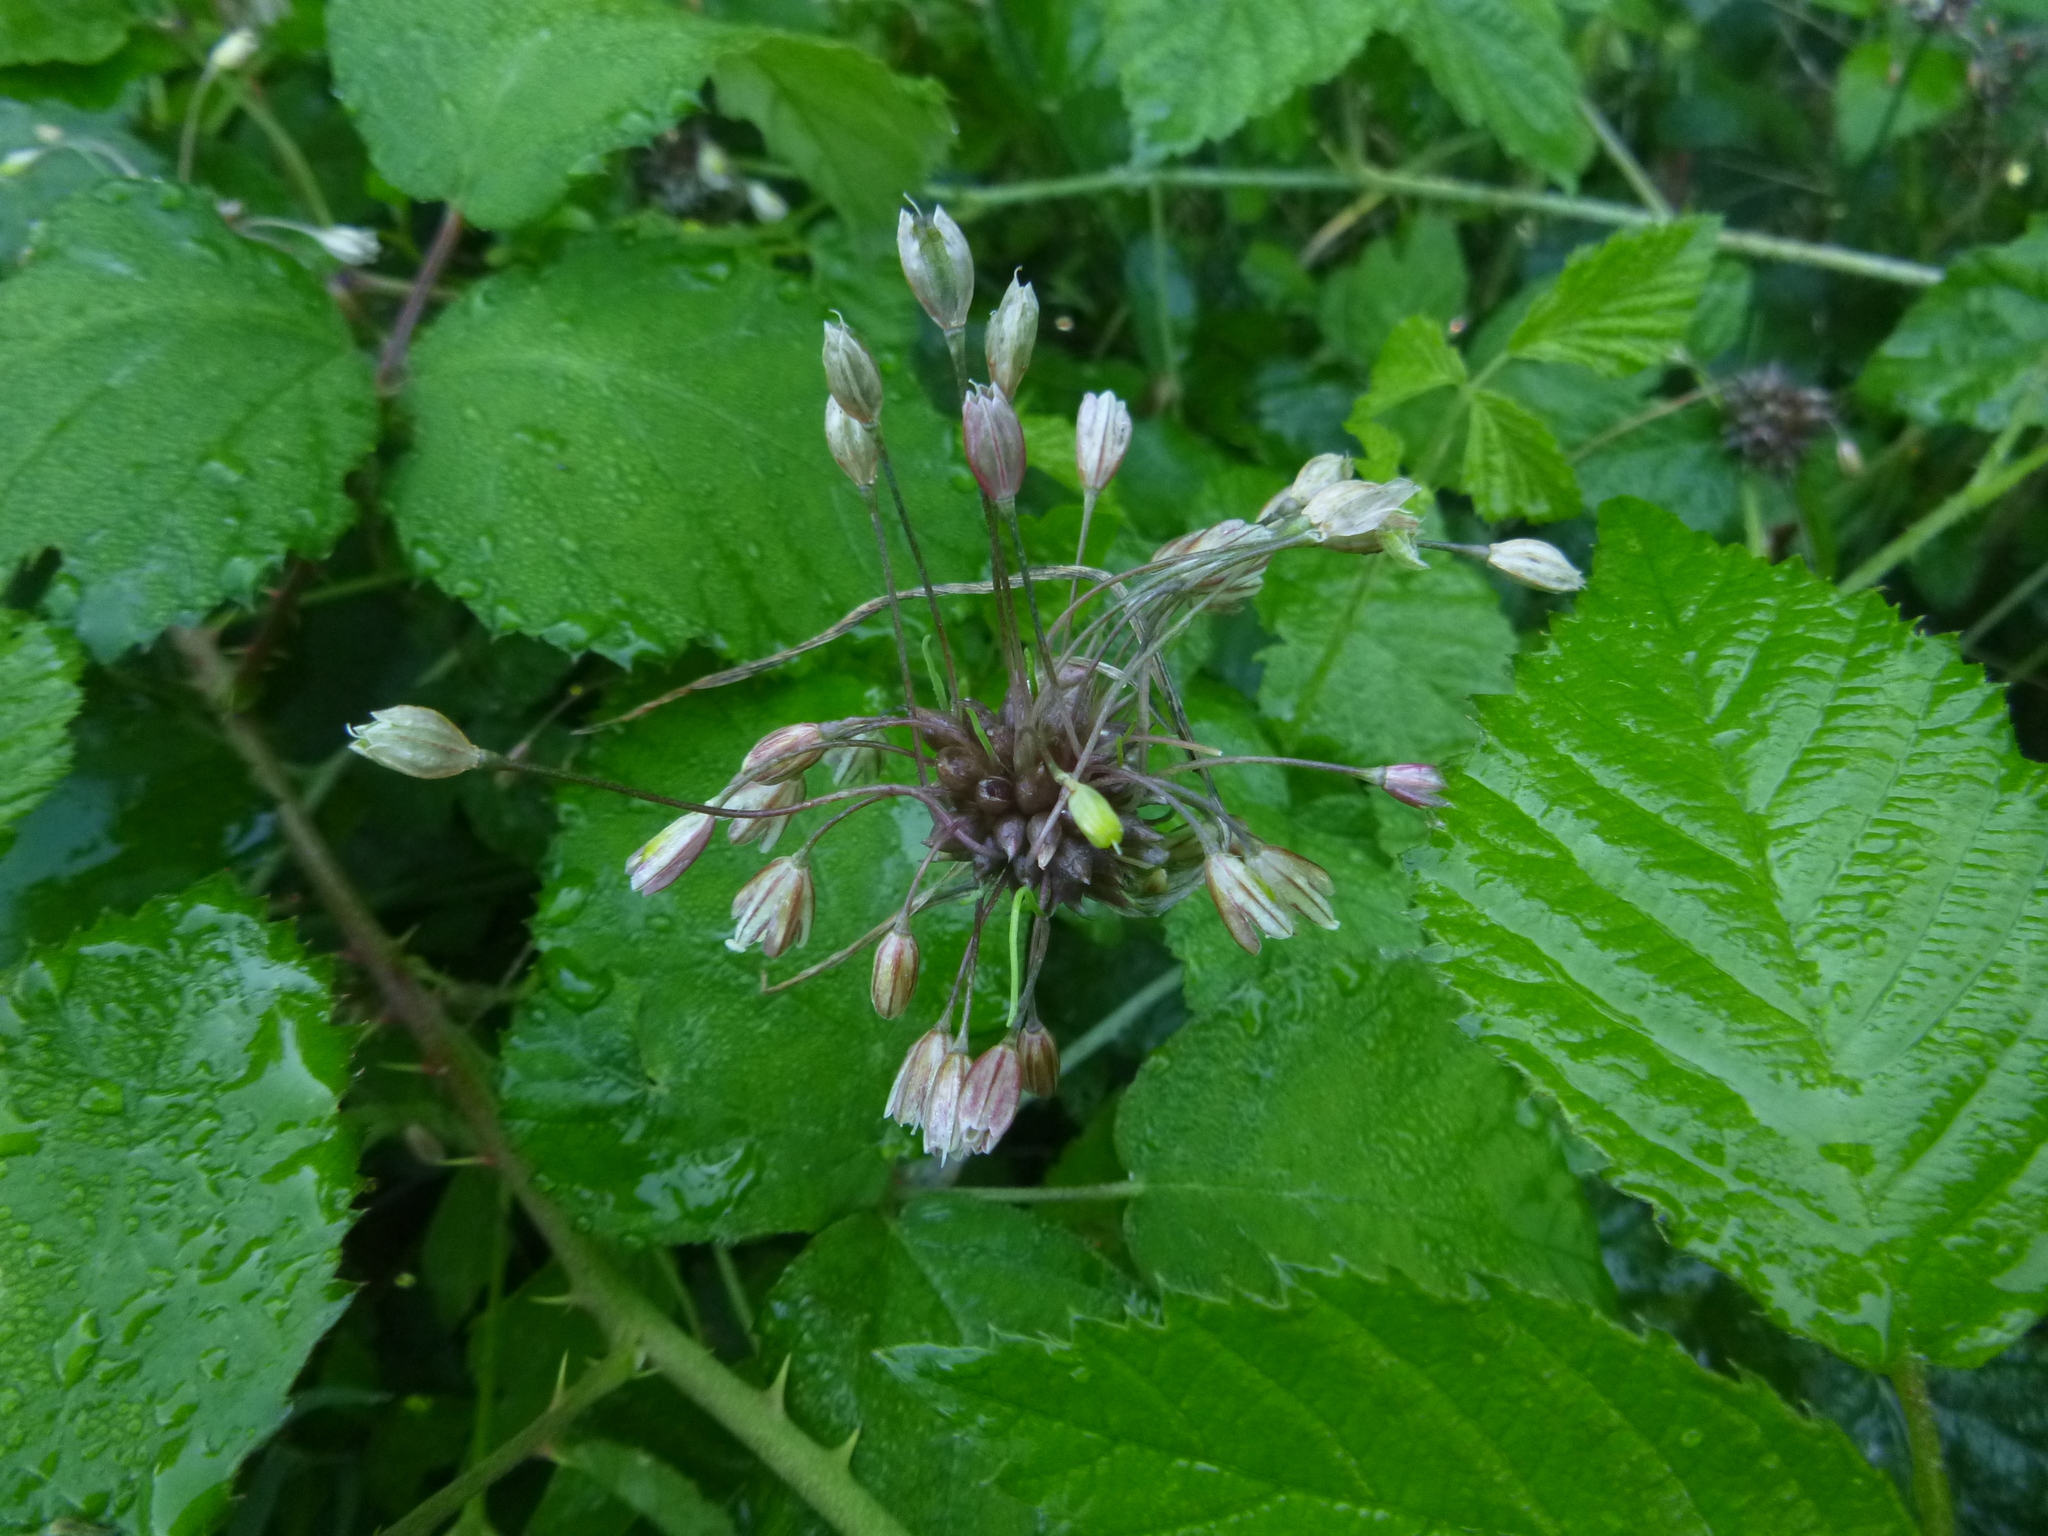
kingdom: Plantae
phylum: Tracheophyta
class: Liliopsida
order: Asparagales
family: Amaryllidaceae
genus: Allium
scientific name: Allium oleraceum
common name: Field garlic
